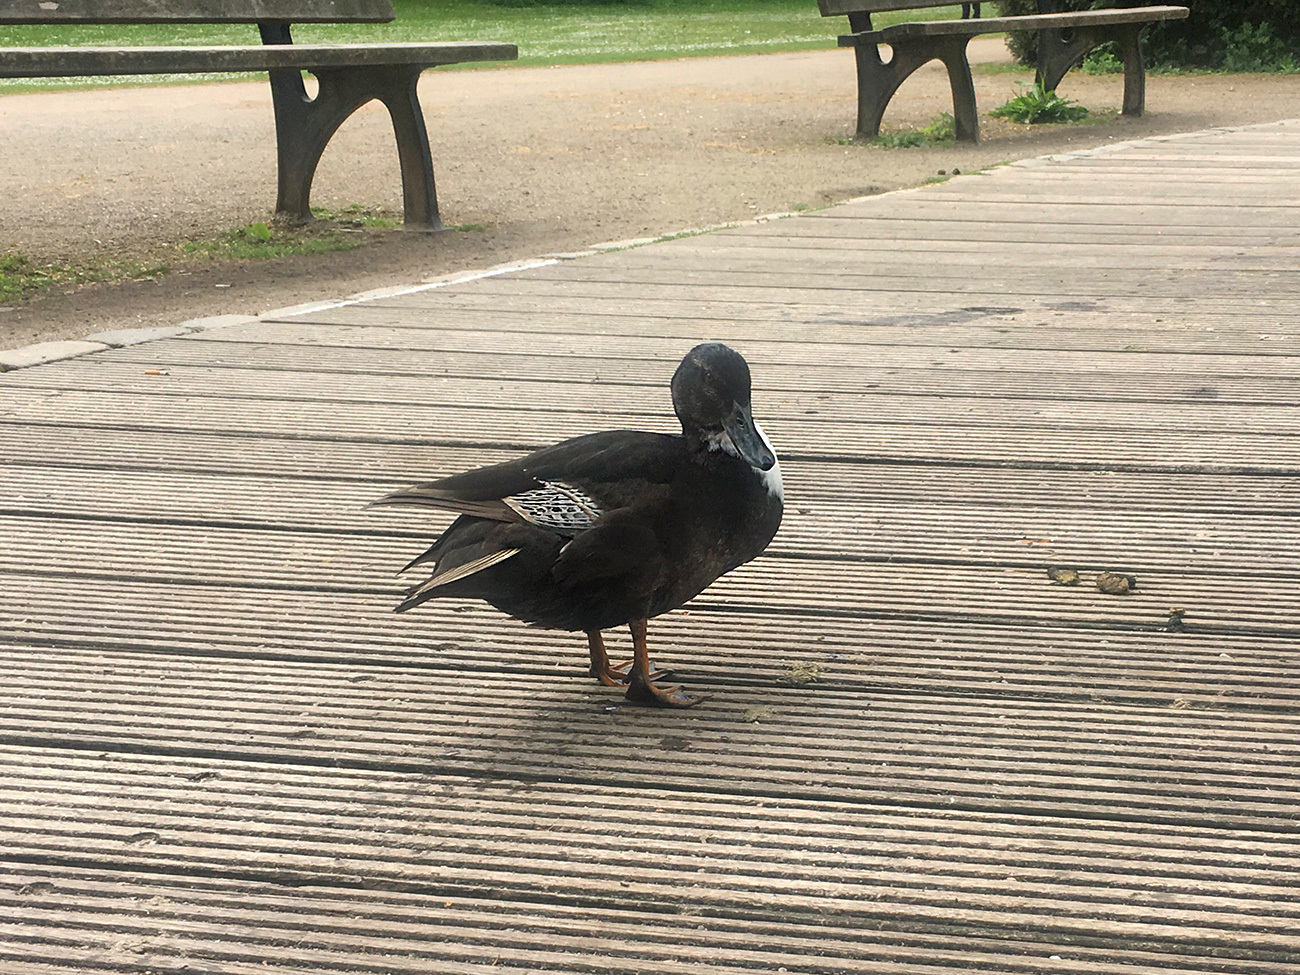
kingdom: Animalia
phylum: Chordata
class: Aves
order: Anseriformes
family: Anatidae
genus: Anas
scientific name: Anas platyrhynchos
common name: Mallard
